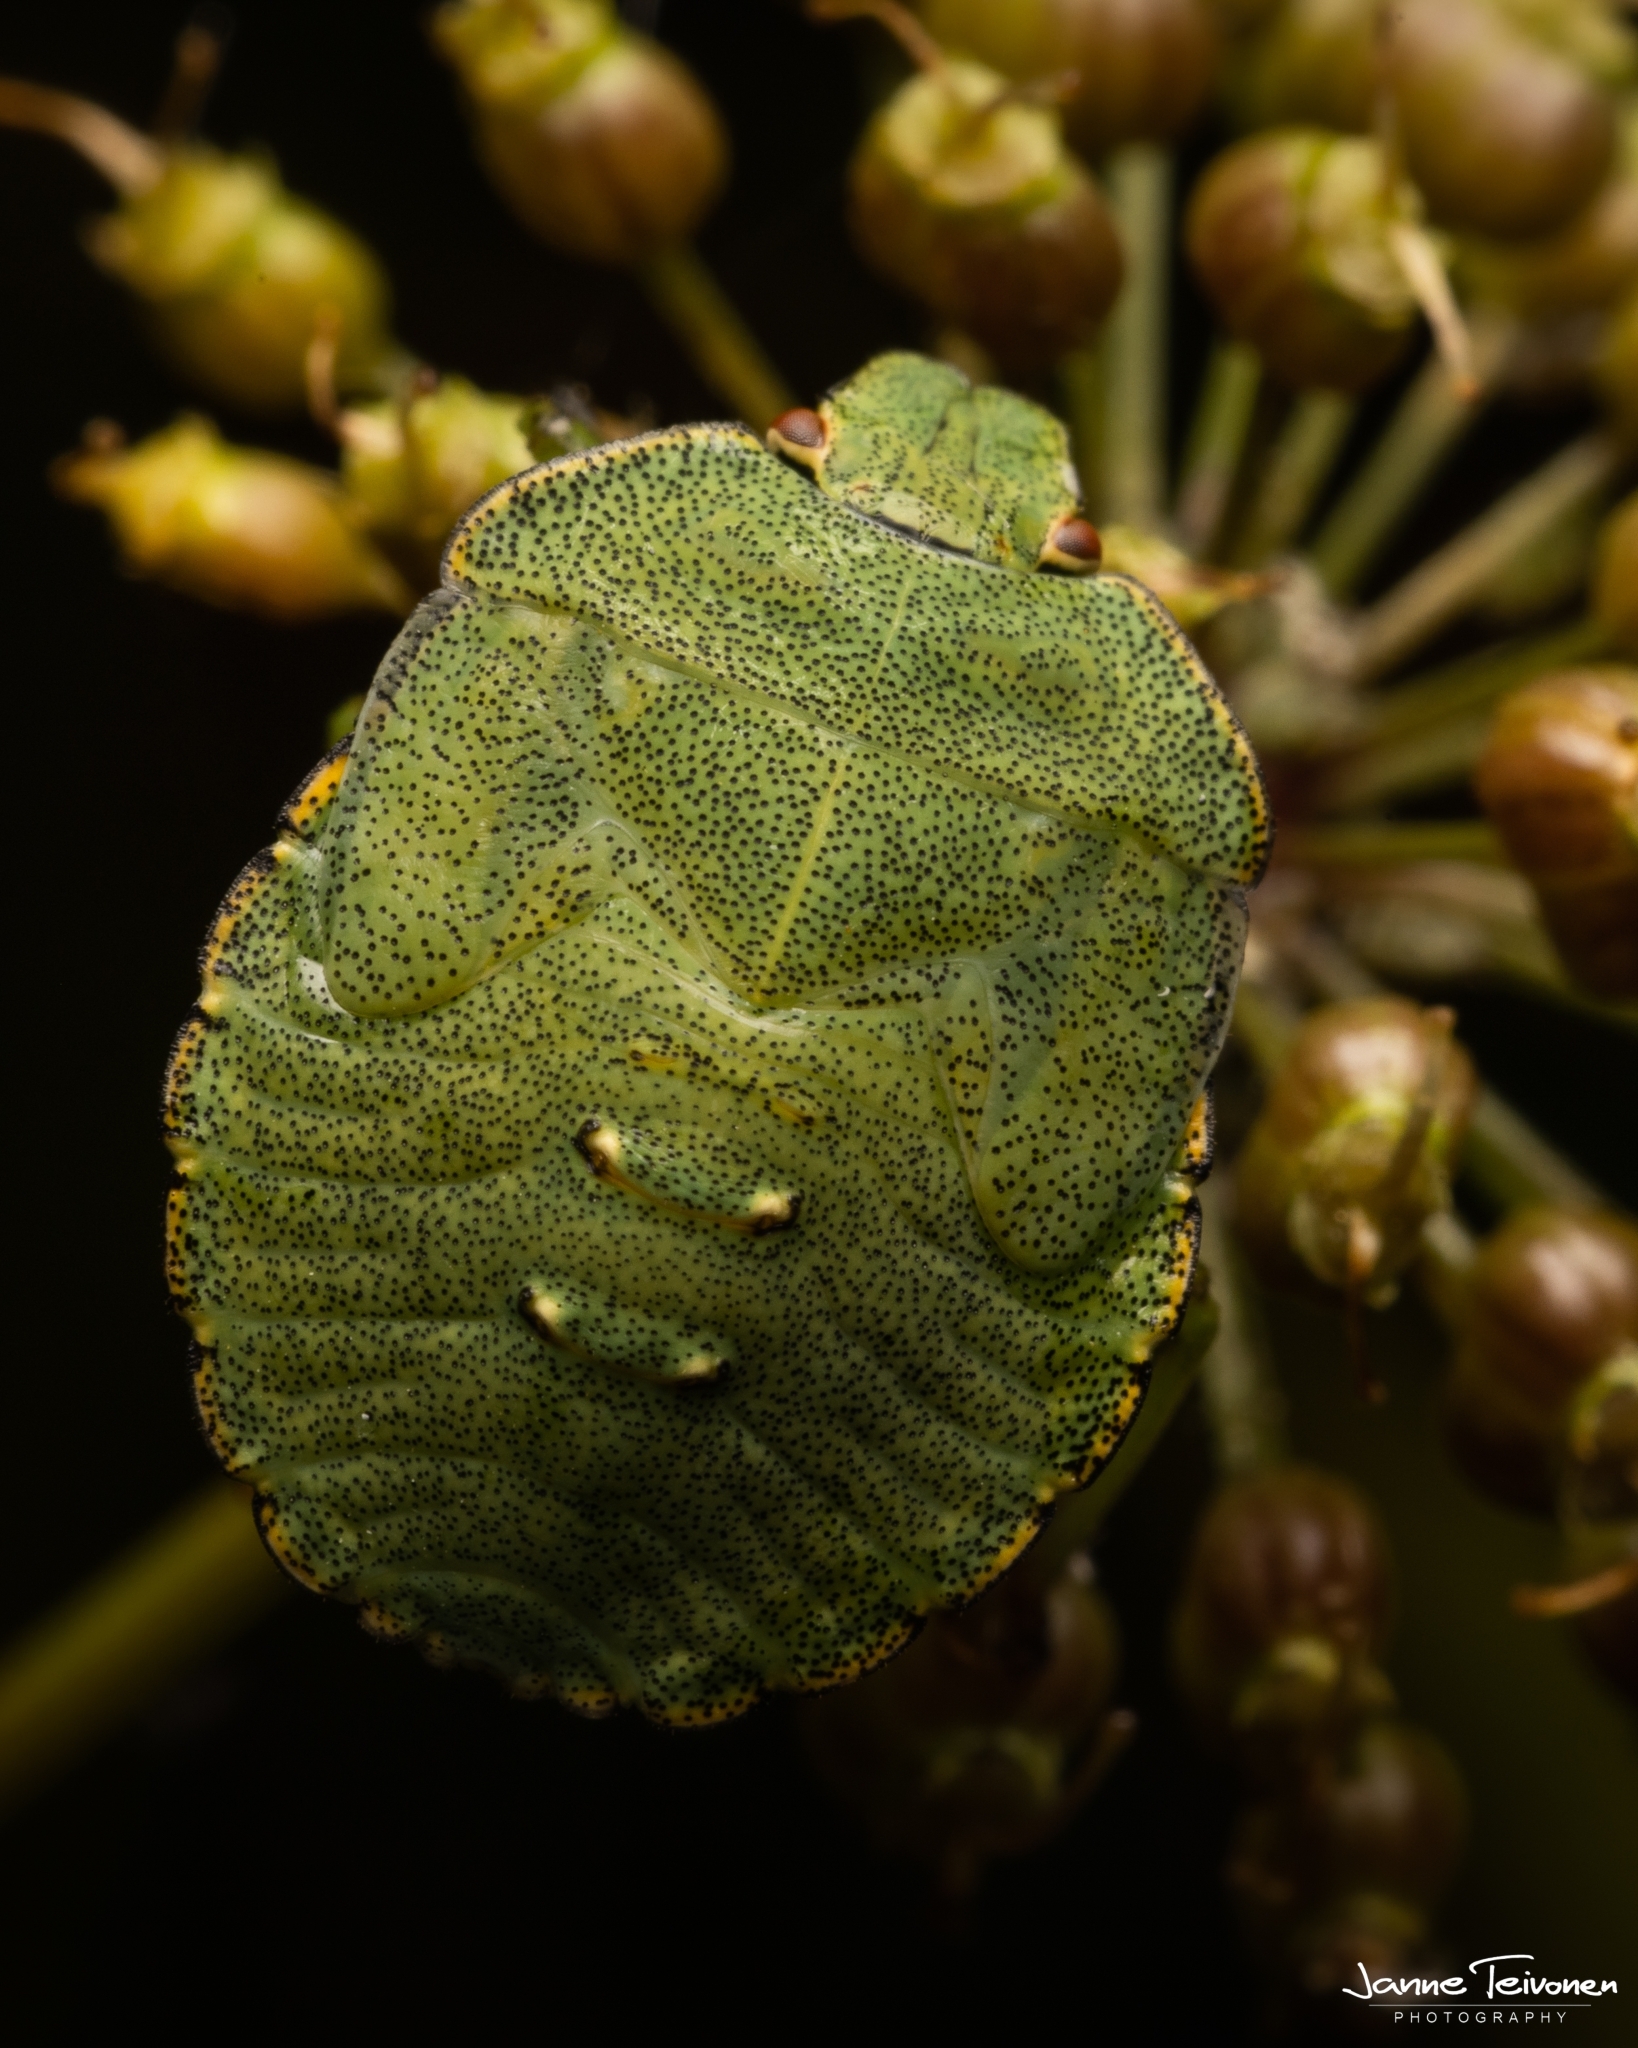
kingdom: Animalia
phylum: Arthropoda
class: Insecta
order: Hemiptera
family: Pentatomidae
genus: Palomena
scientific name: Palomena prasina
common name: Green shieldbug
